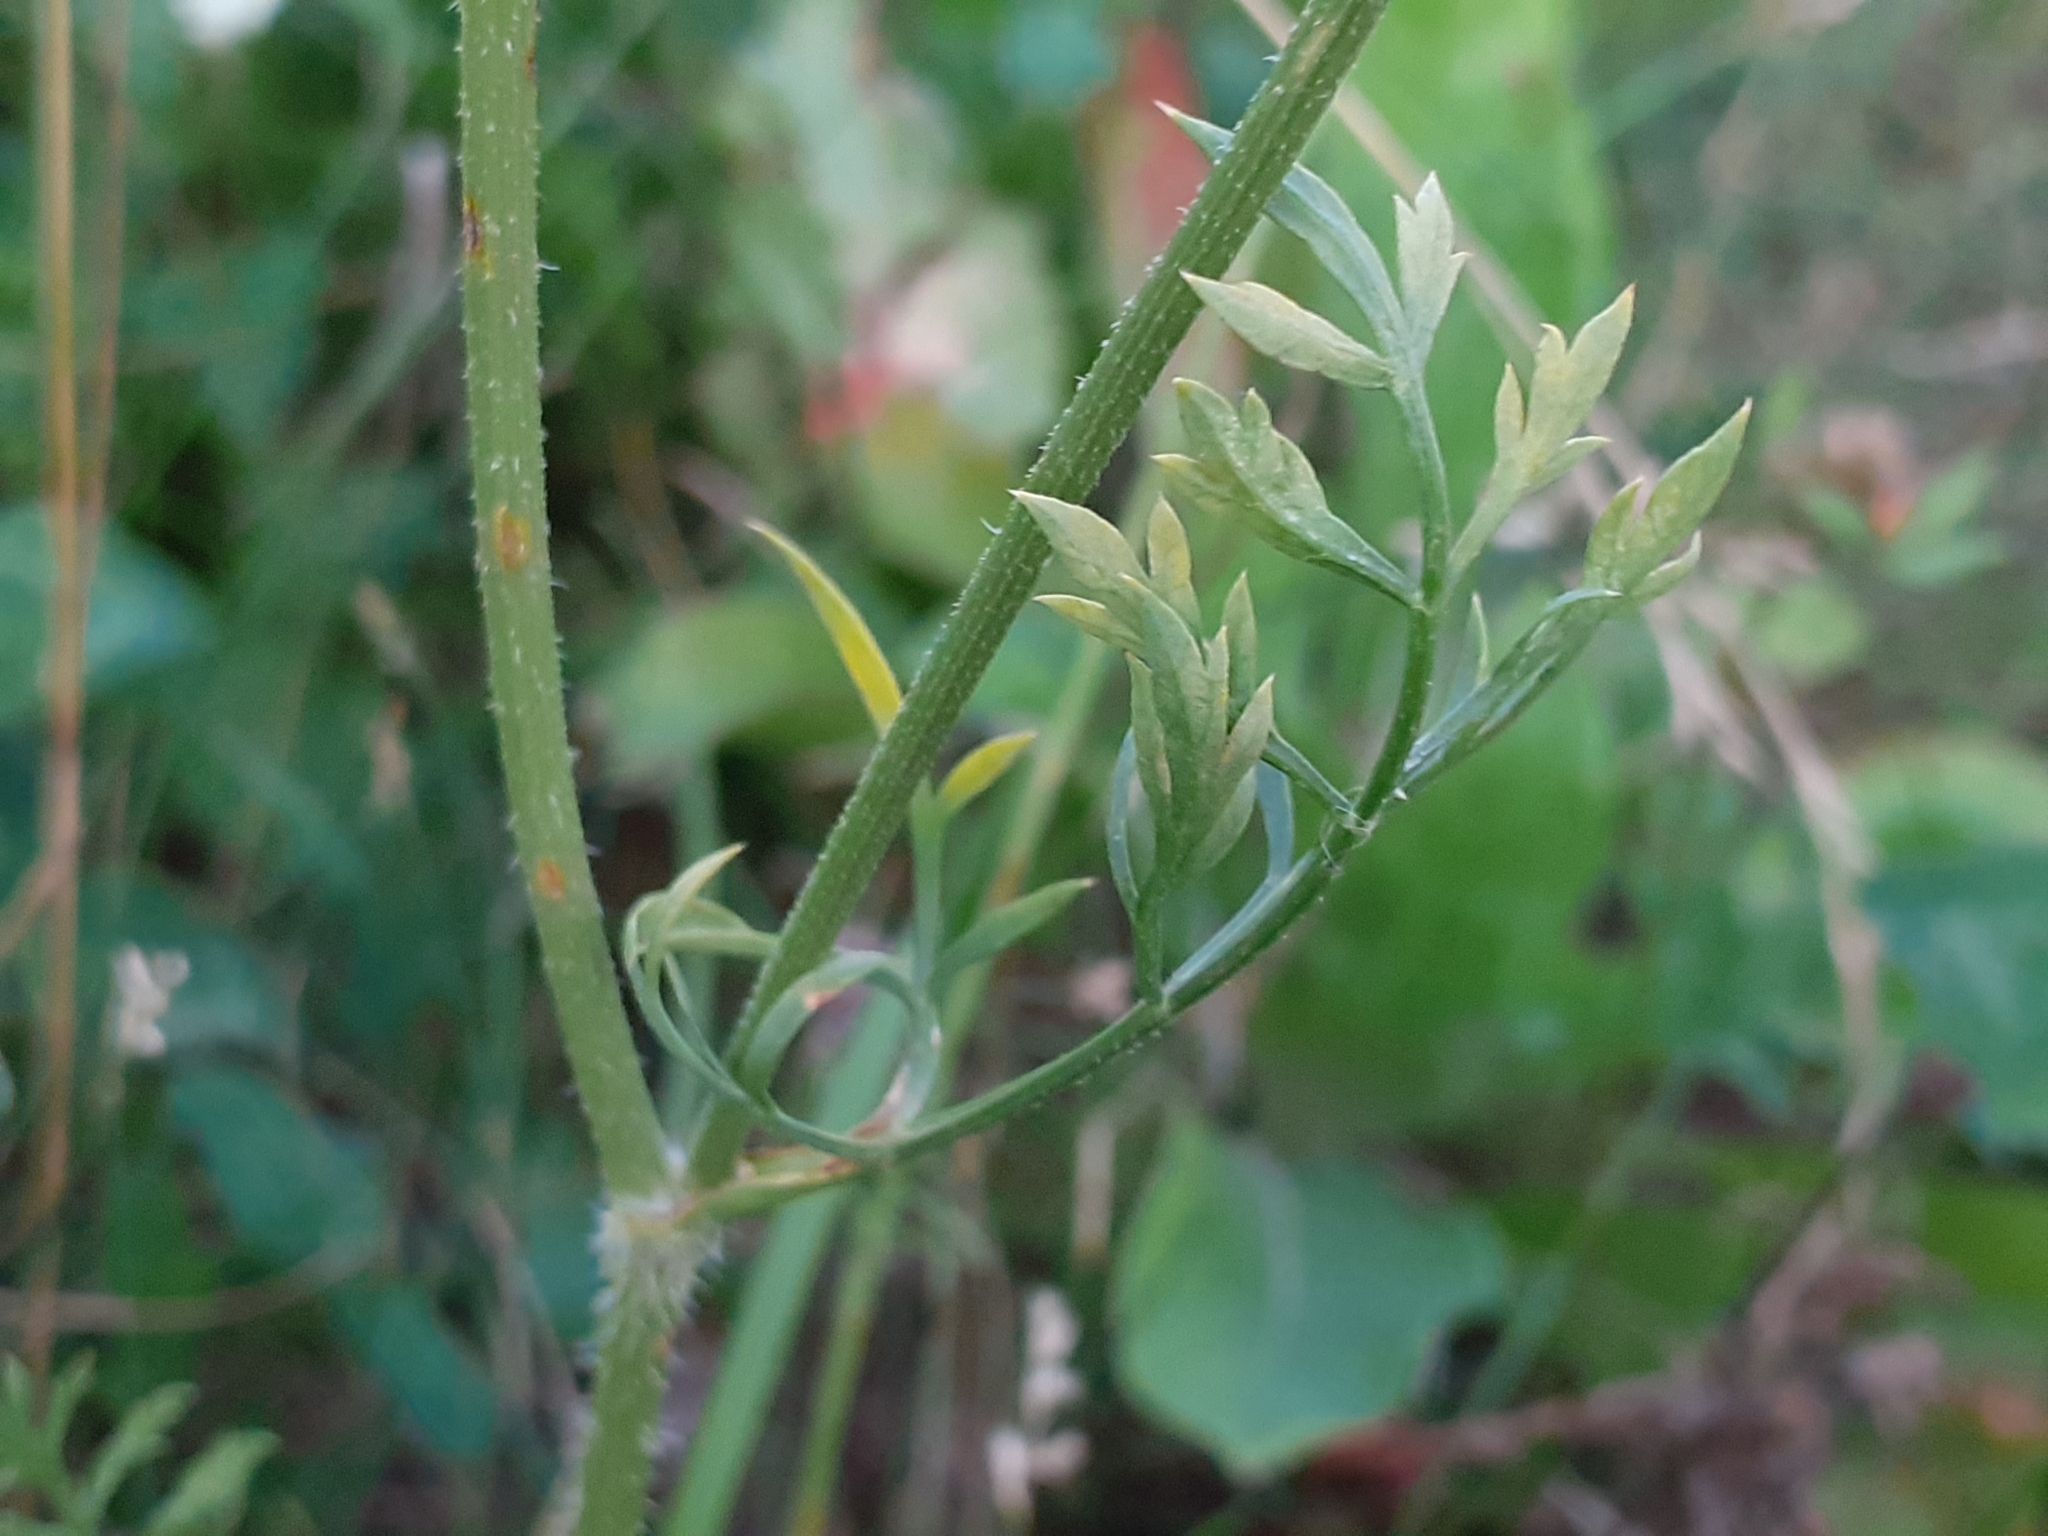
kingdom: Plantae
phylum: Tracheophyta
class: Magnoliopsida
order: Apiales
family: Apiaceae
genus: Daucus
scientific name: Daucus carota
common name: Wild carrot
